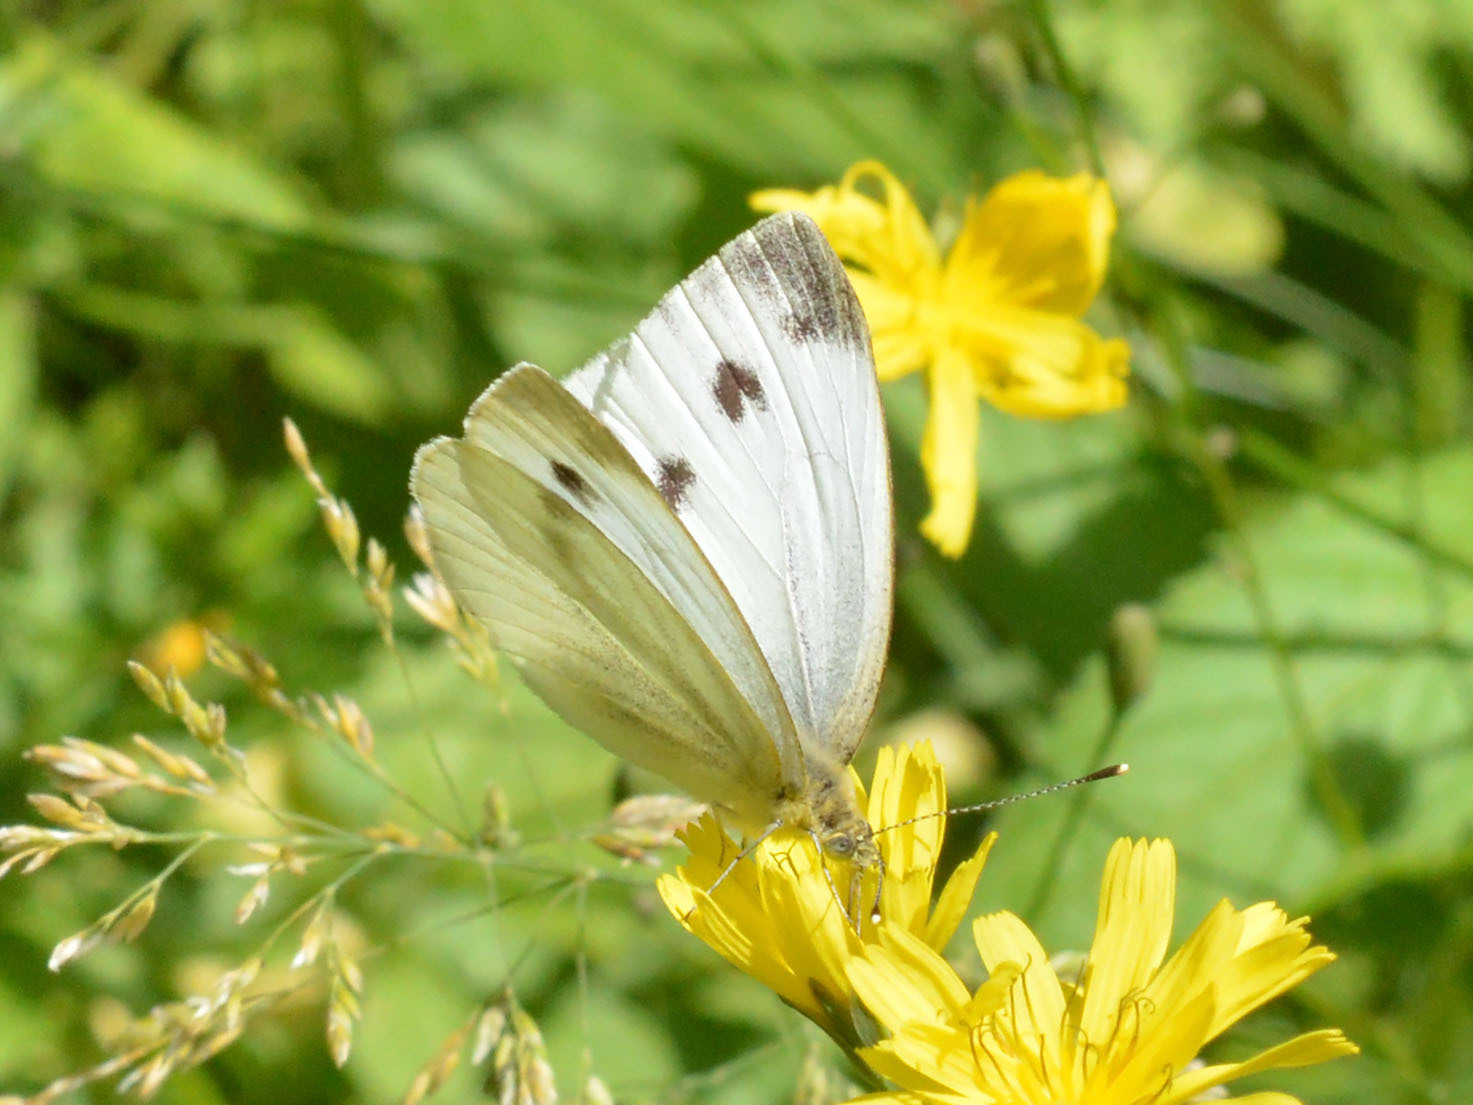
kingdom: Animalia
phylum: Arthropoda
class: Insecta
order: Lepidoptera
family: Pieridae
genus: Pieris
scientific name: Pieris napi
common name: Green-veined white
